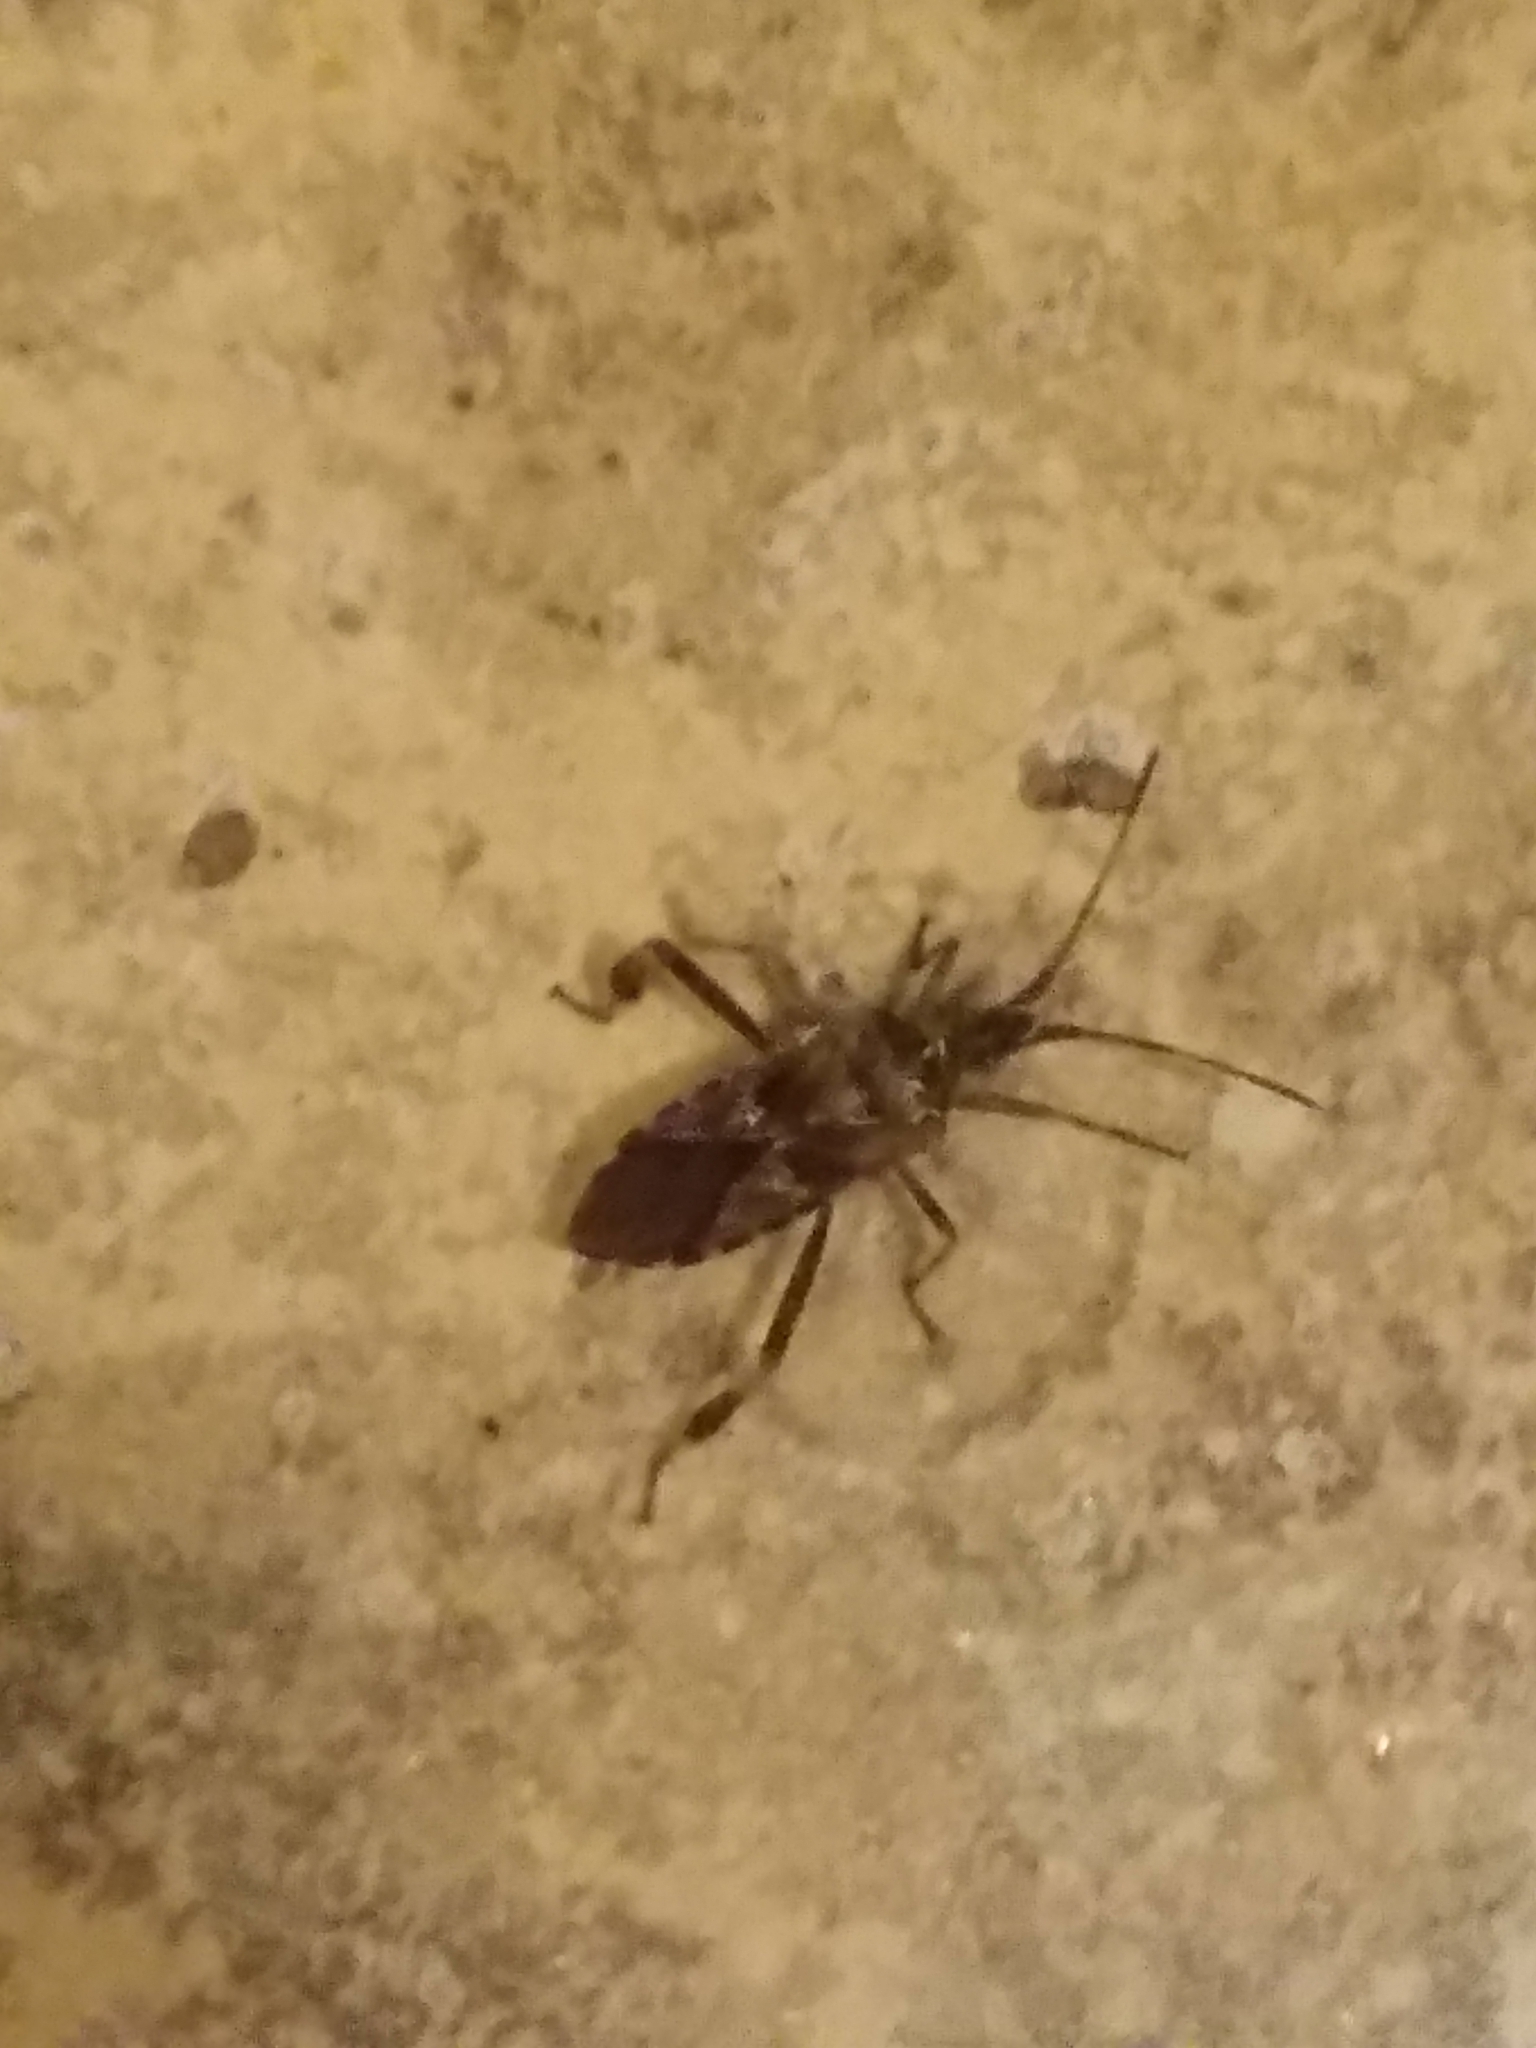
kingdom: Animalia
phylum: Arthropoda
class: Insecta
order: Hemiptera
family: Coreidae
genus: Leptoglossus
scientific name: Leptoglossus occidentalis
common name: Western conifer-seed bug
